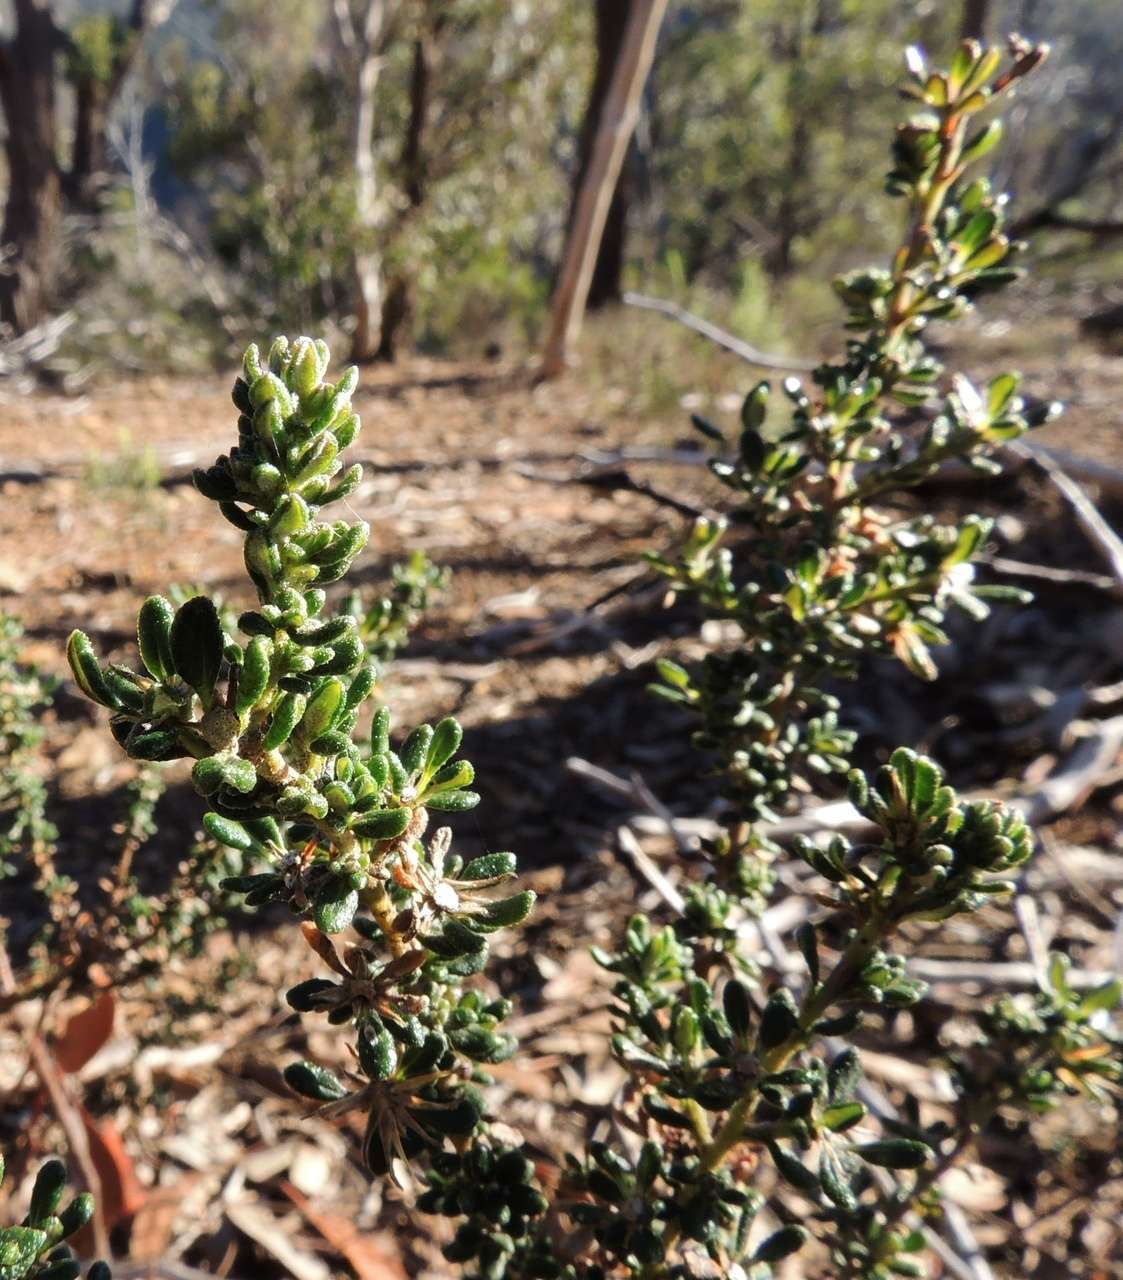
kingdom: Plantae
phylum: Tracheophyta
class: Magnoliopsida
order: Asterales
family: Asteraceae
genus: Olearia
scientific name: Olearia minor
